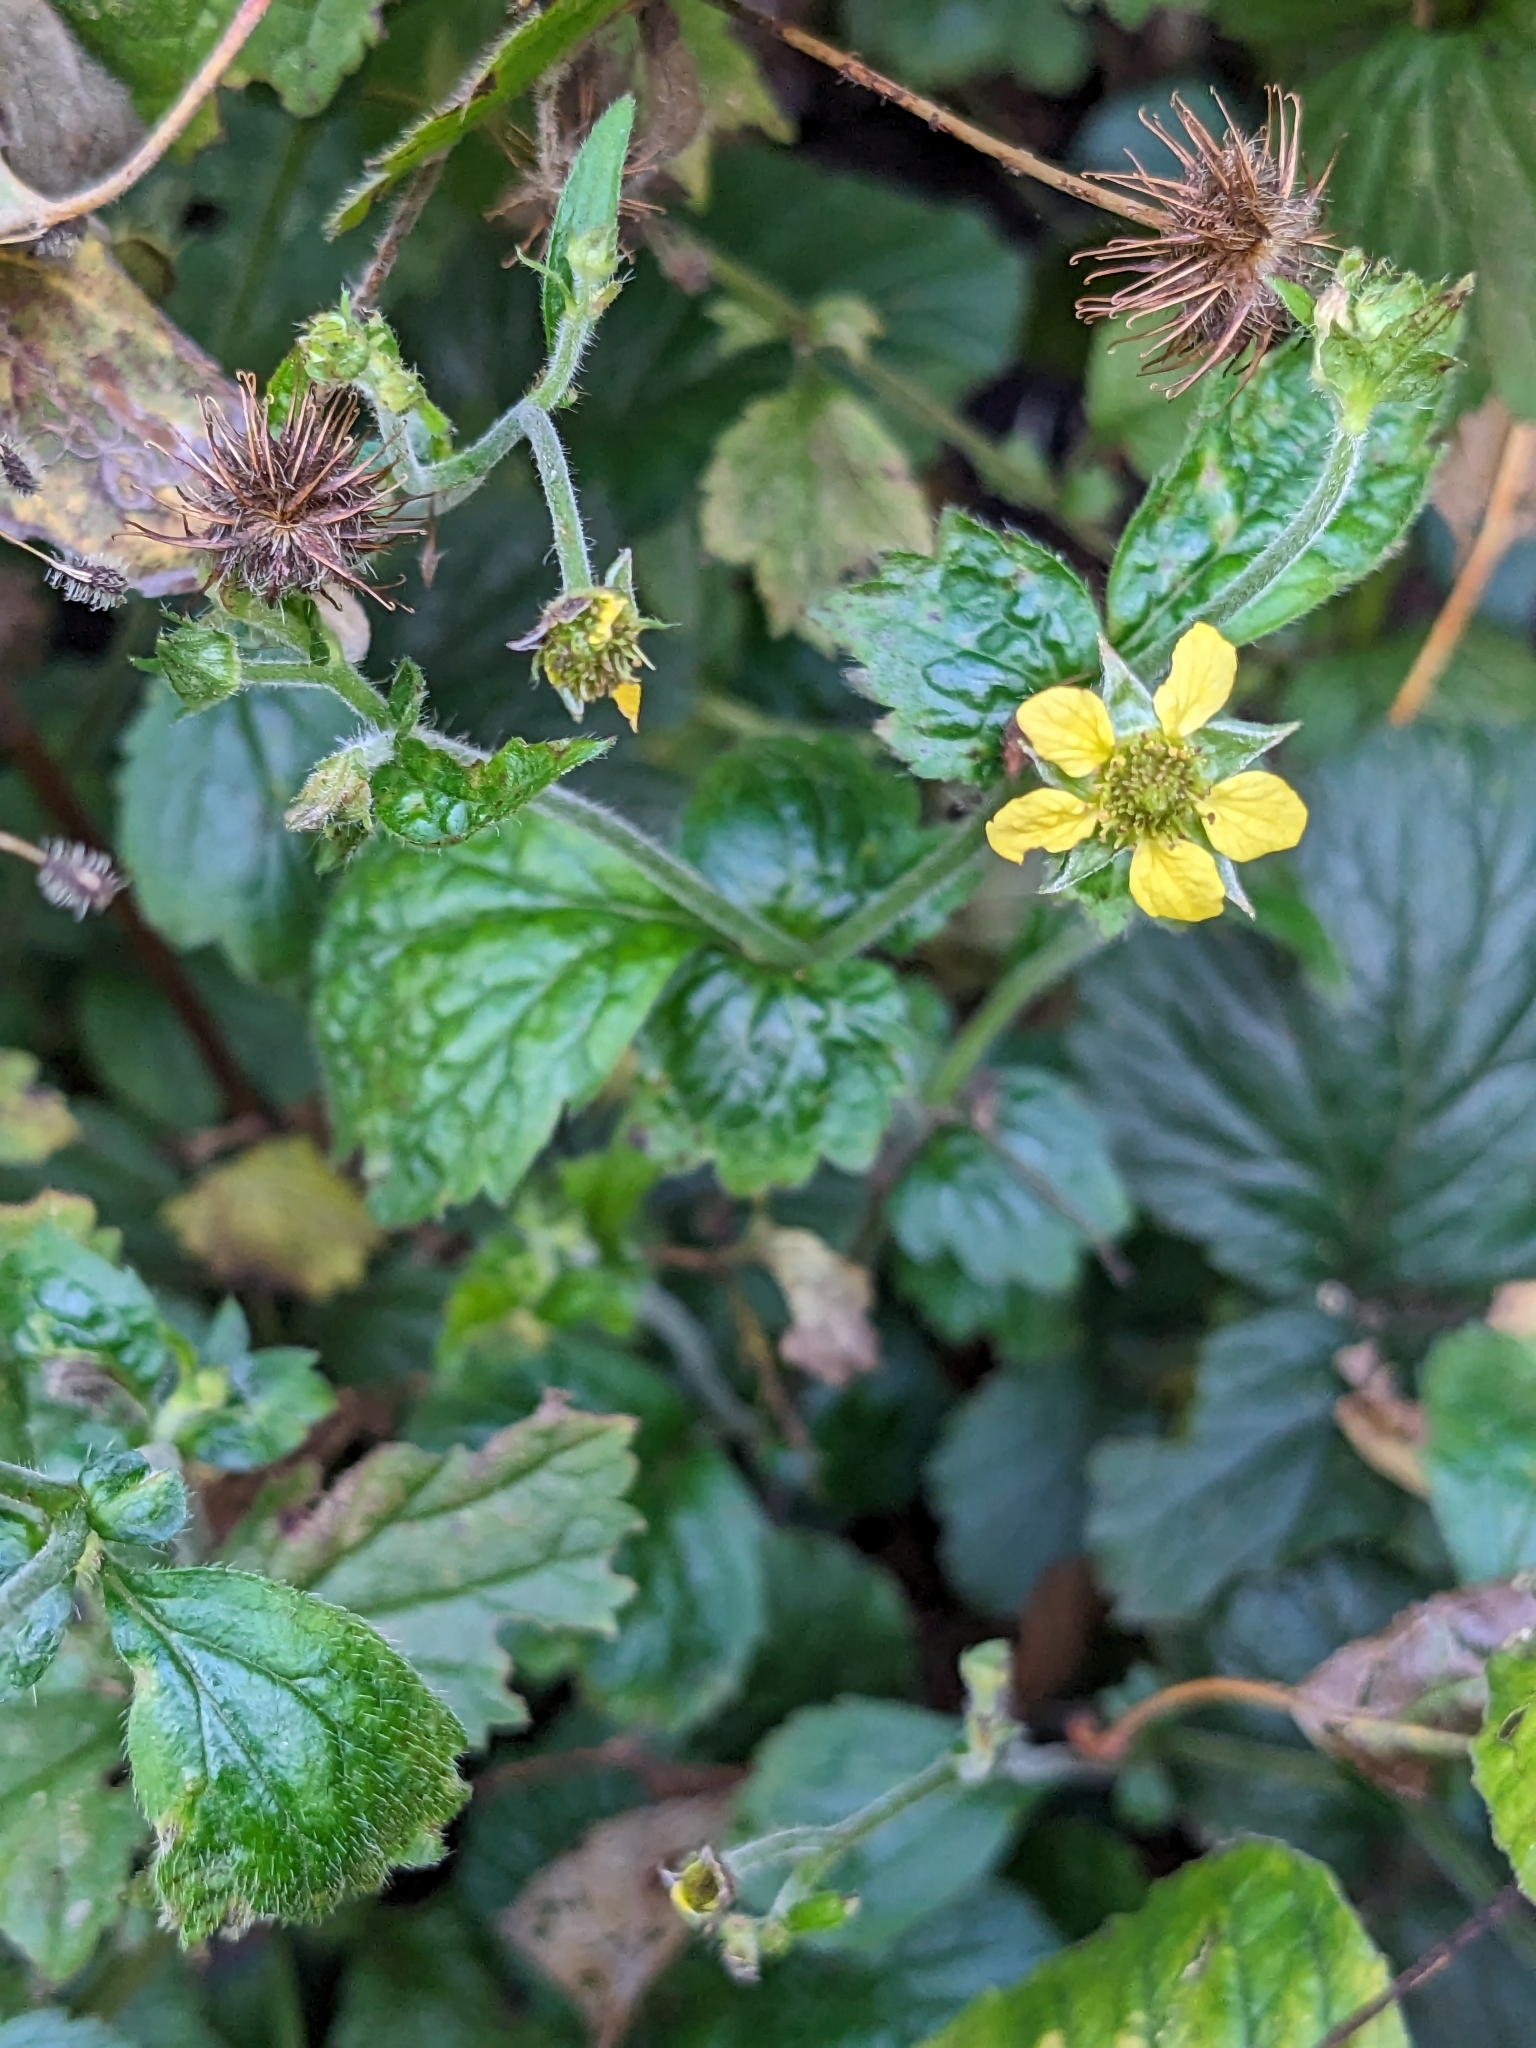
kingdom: Plantae
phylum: Tracheophyta
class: Magnoliopsida
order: Rosales
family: Rosaceae
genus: Geum
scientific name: Geum urbanum
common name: Wood avens
